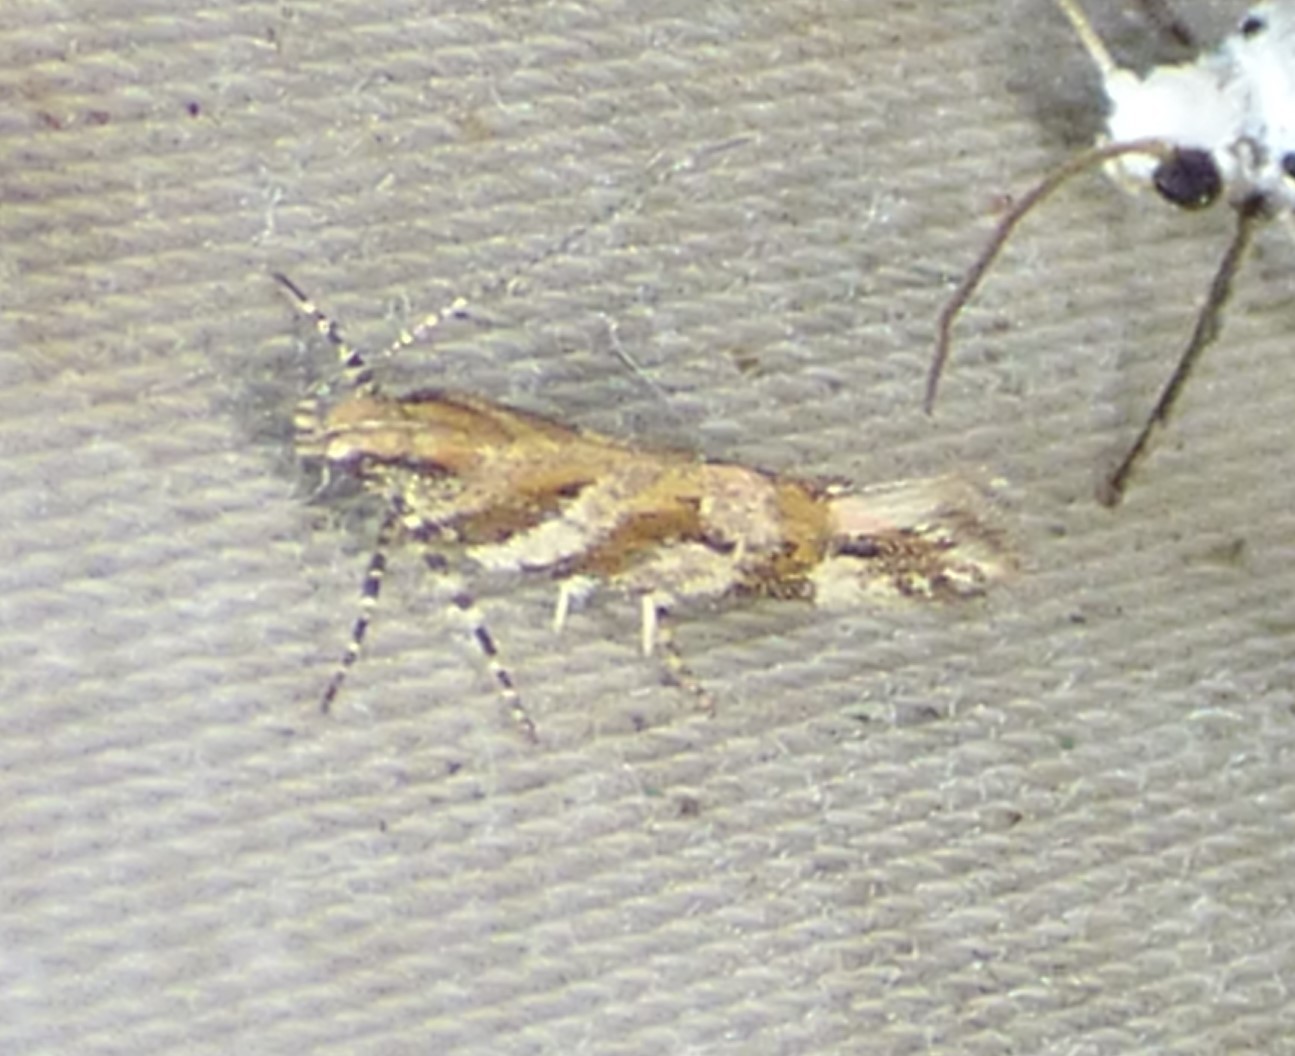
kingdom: Animalia
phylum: Arthropoda
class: Insecta
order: Lepidoptera
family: Gelechiidae
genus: Aristotelia
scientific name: Aristotelia roseosuffusella
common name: Pink-washed aristotelia moth
